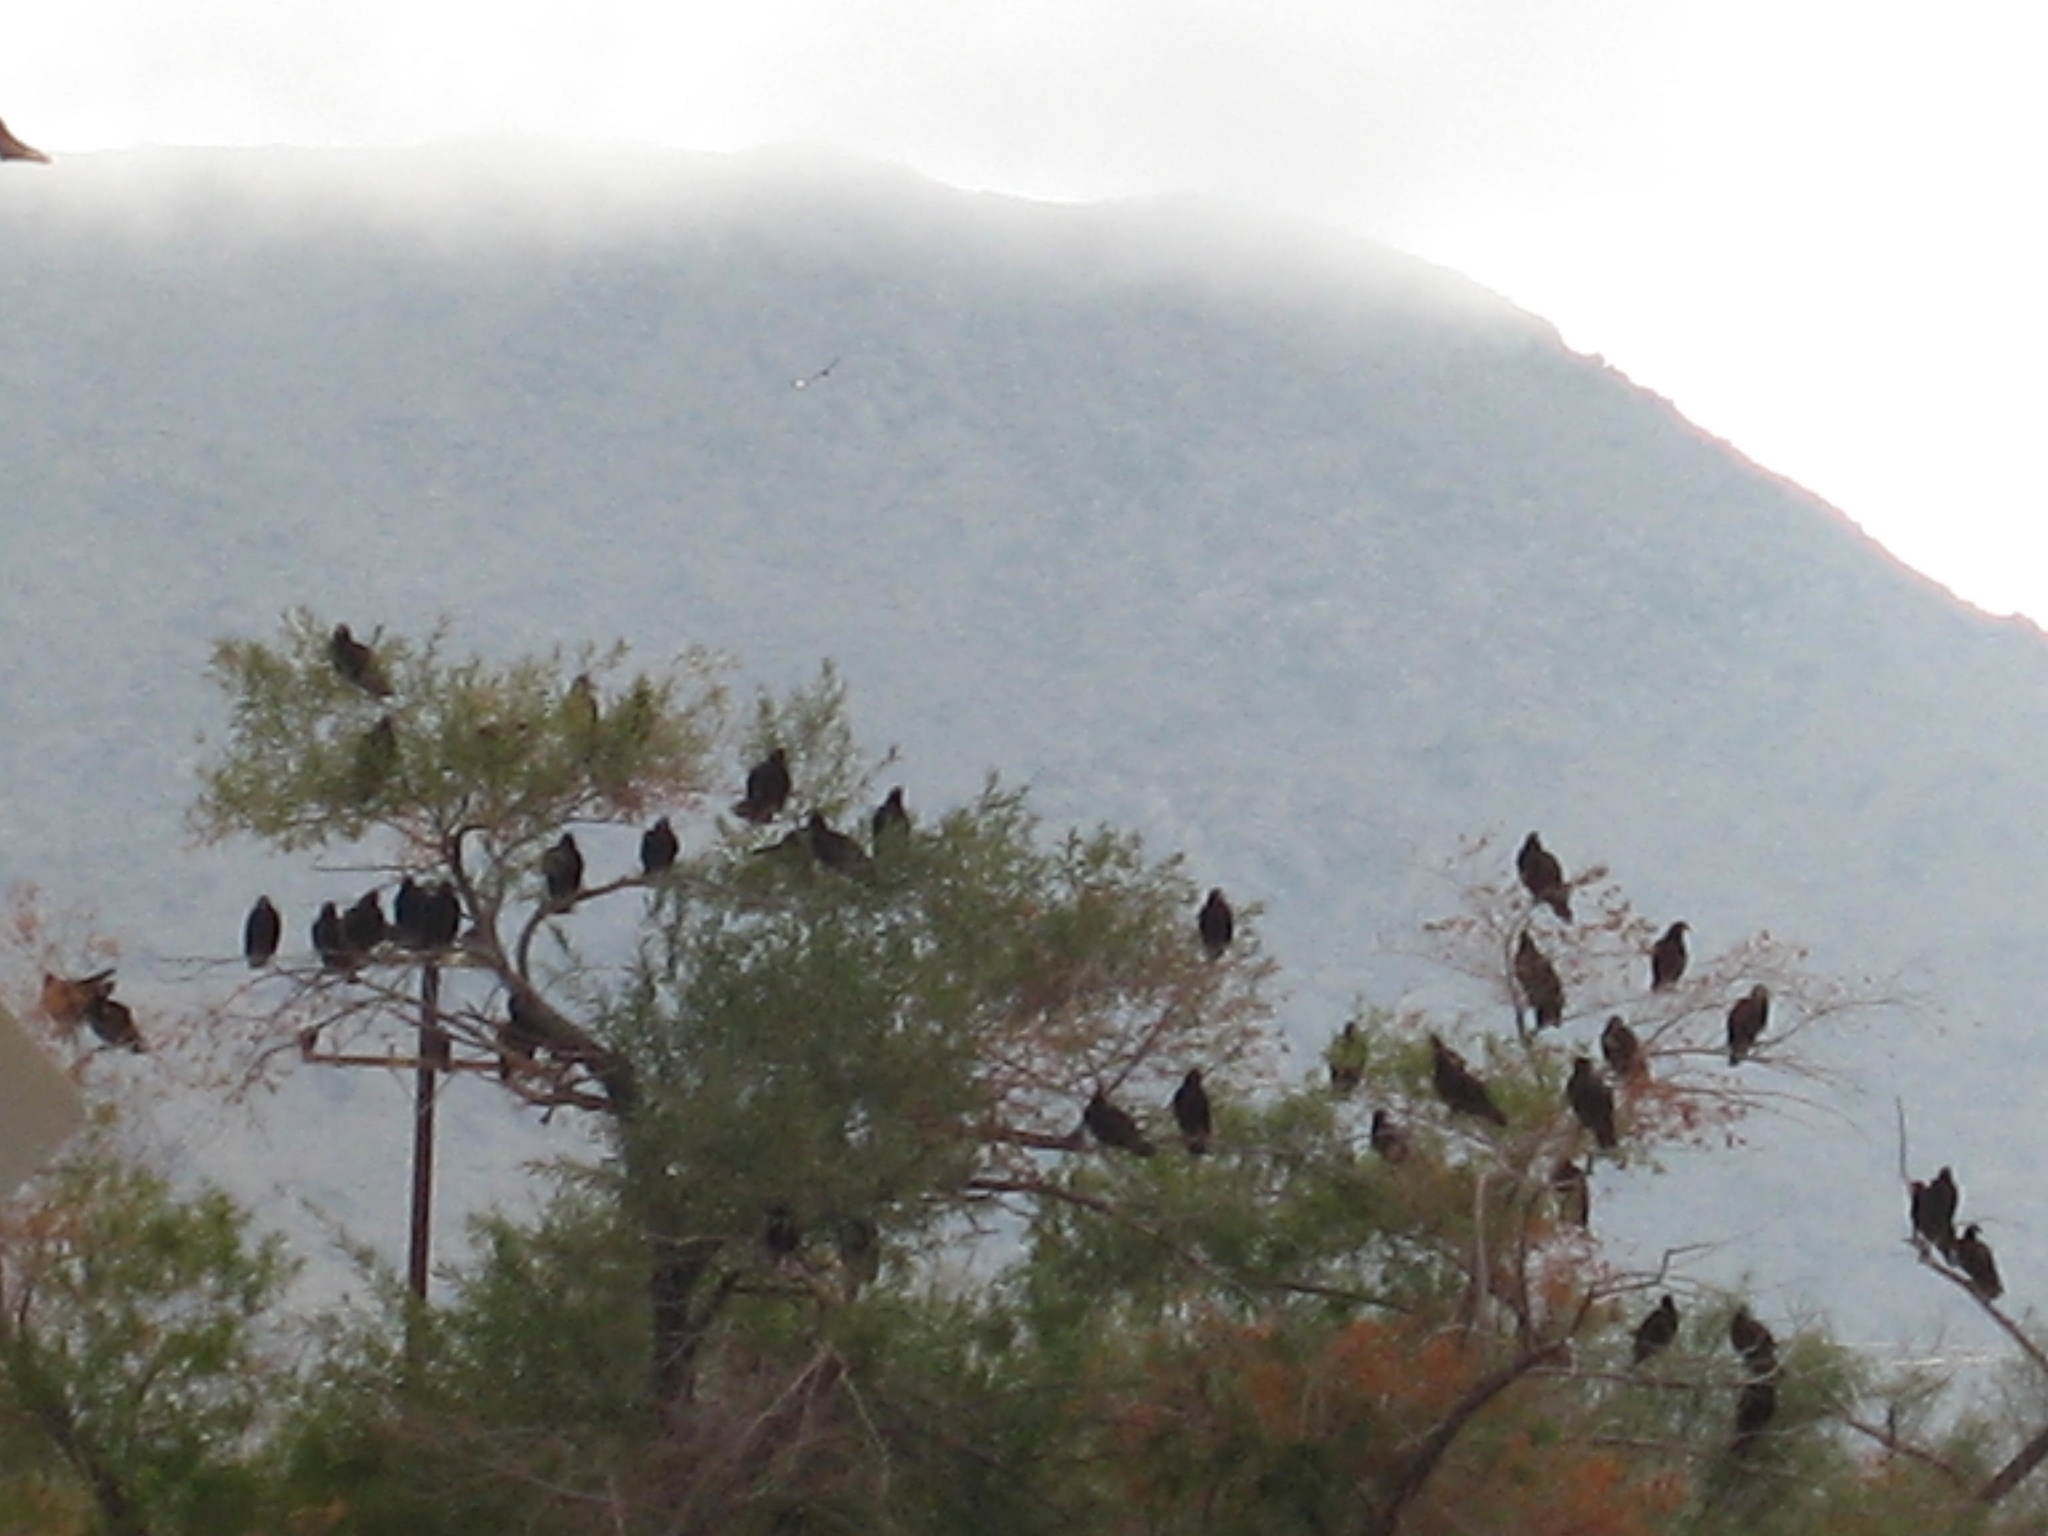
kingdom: Animalia
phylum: Chordata
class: Aves
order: Accipitriformes
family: Cathartidae
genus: Cathartes
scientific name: Cathartes aura
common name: Turkey vulture
